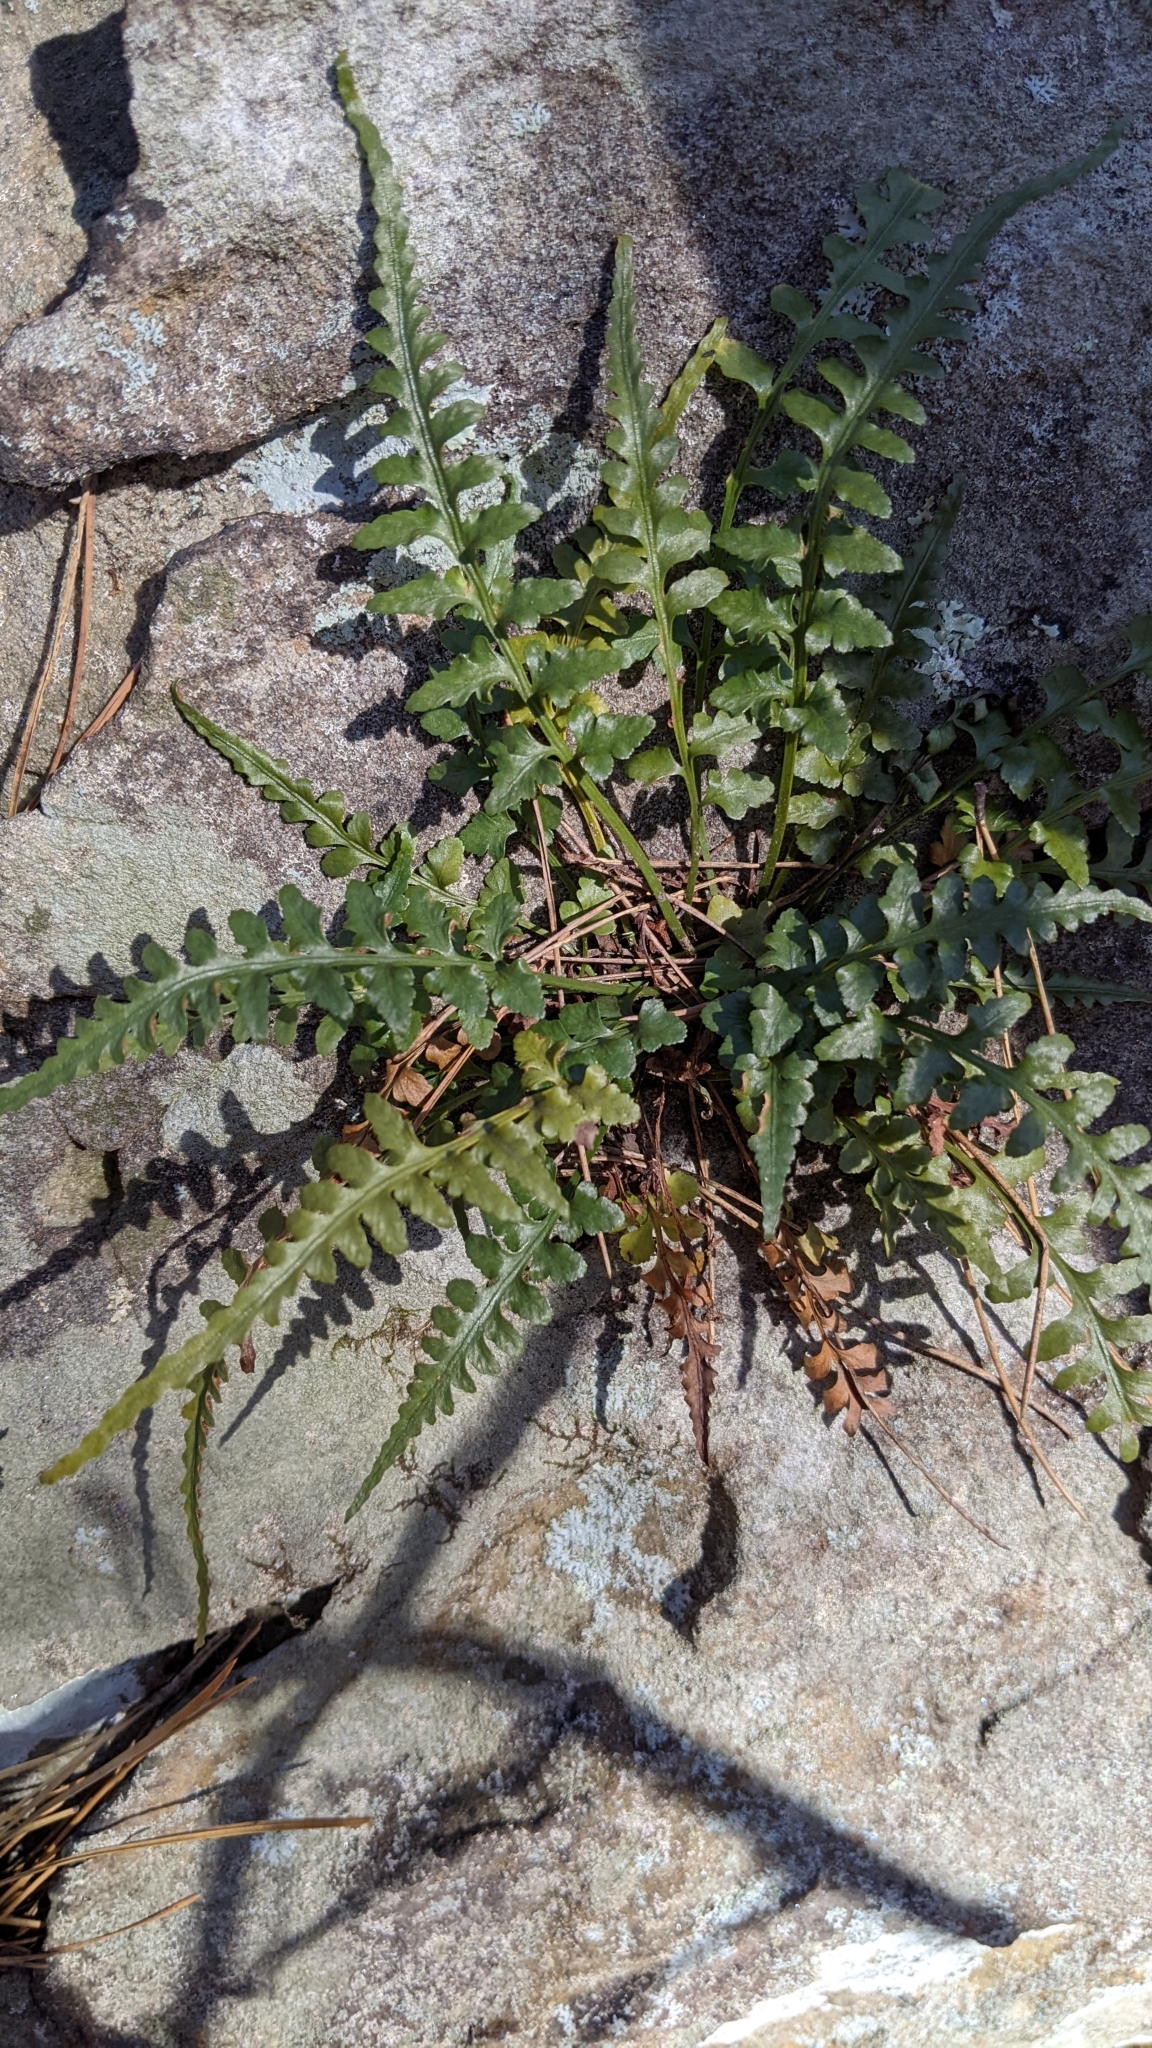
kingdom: Plantae
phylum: Tracheophyta
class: Polypodiopsida
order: Polypodiales
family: Aspleniaceae
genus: Asplenium
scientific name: Asplenium pinnatifidum
